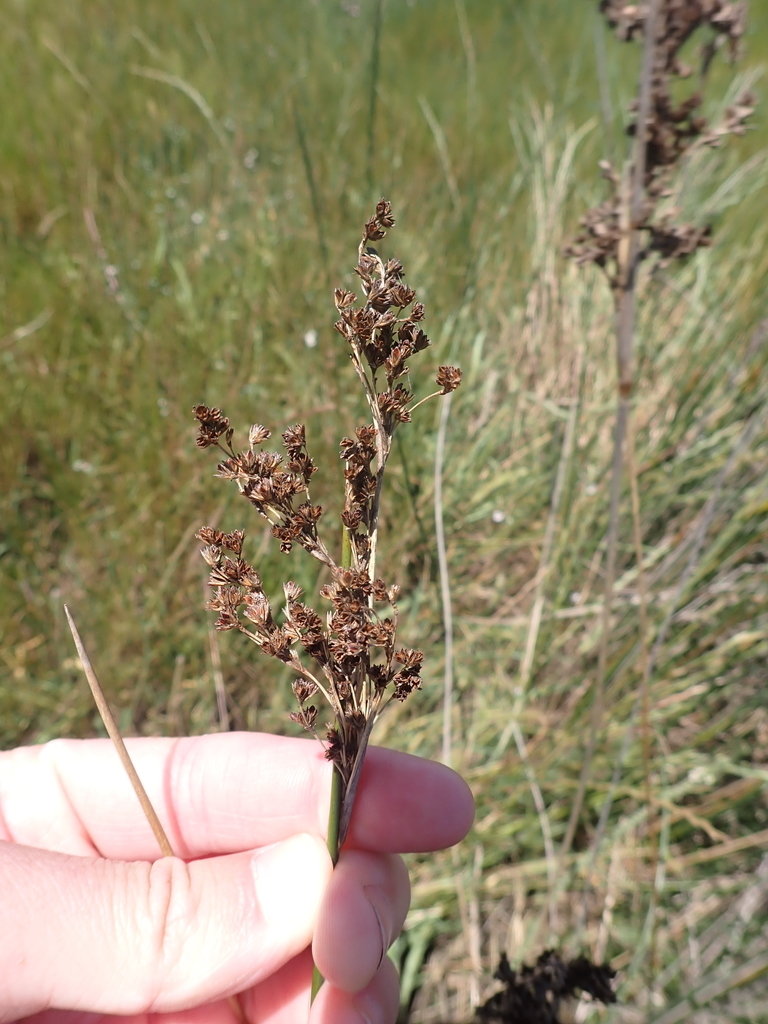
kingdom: Plantae
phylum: Tracheophyta
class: Liliopsida
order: Poales
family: Juncaceae
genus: Juncus
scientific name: Juncus kraussii
